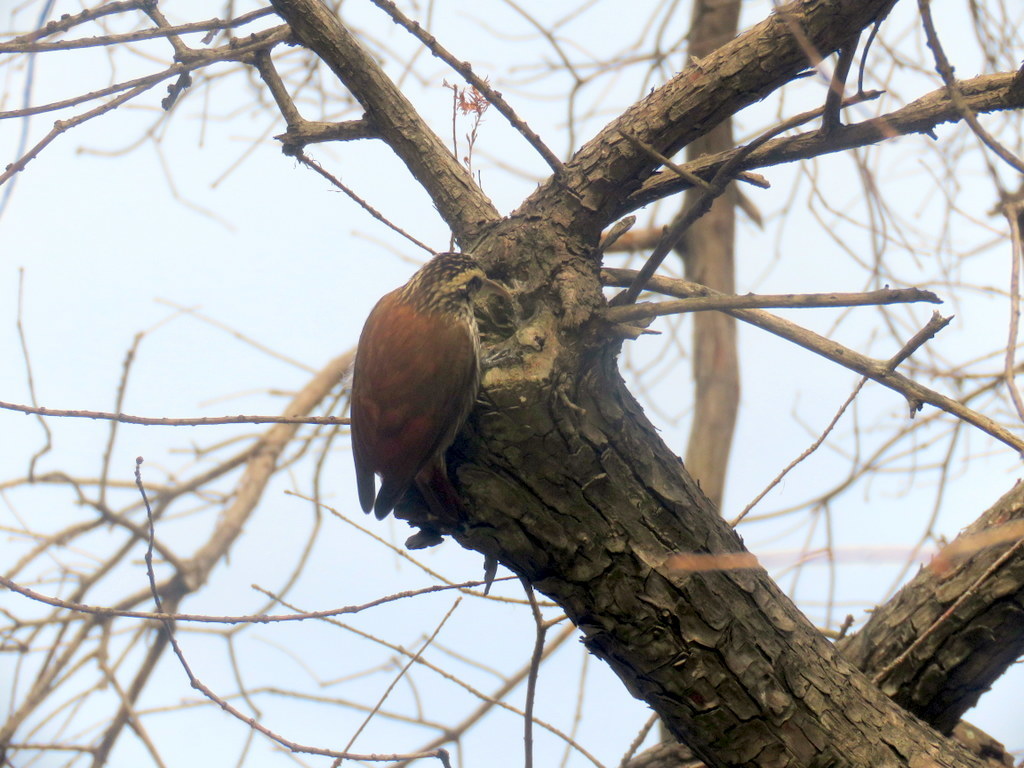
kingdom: Animalia
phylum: Chordata
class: Aves
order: Passeriformes
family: Furnariidae
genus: Lepidocolaptes
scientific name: Lepidocolaptes angustirostris
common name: Narrow-billed woodcreeper
